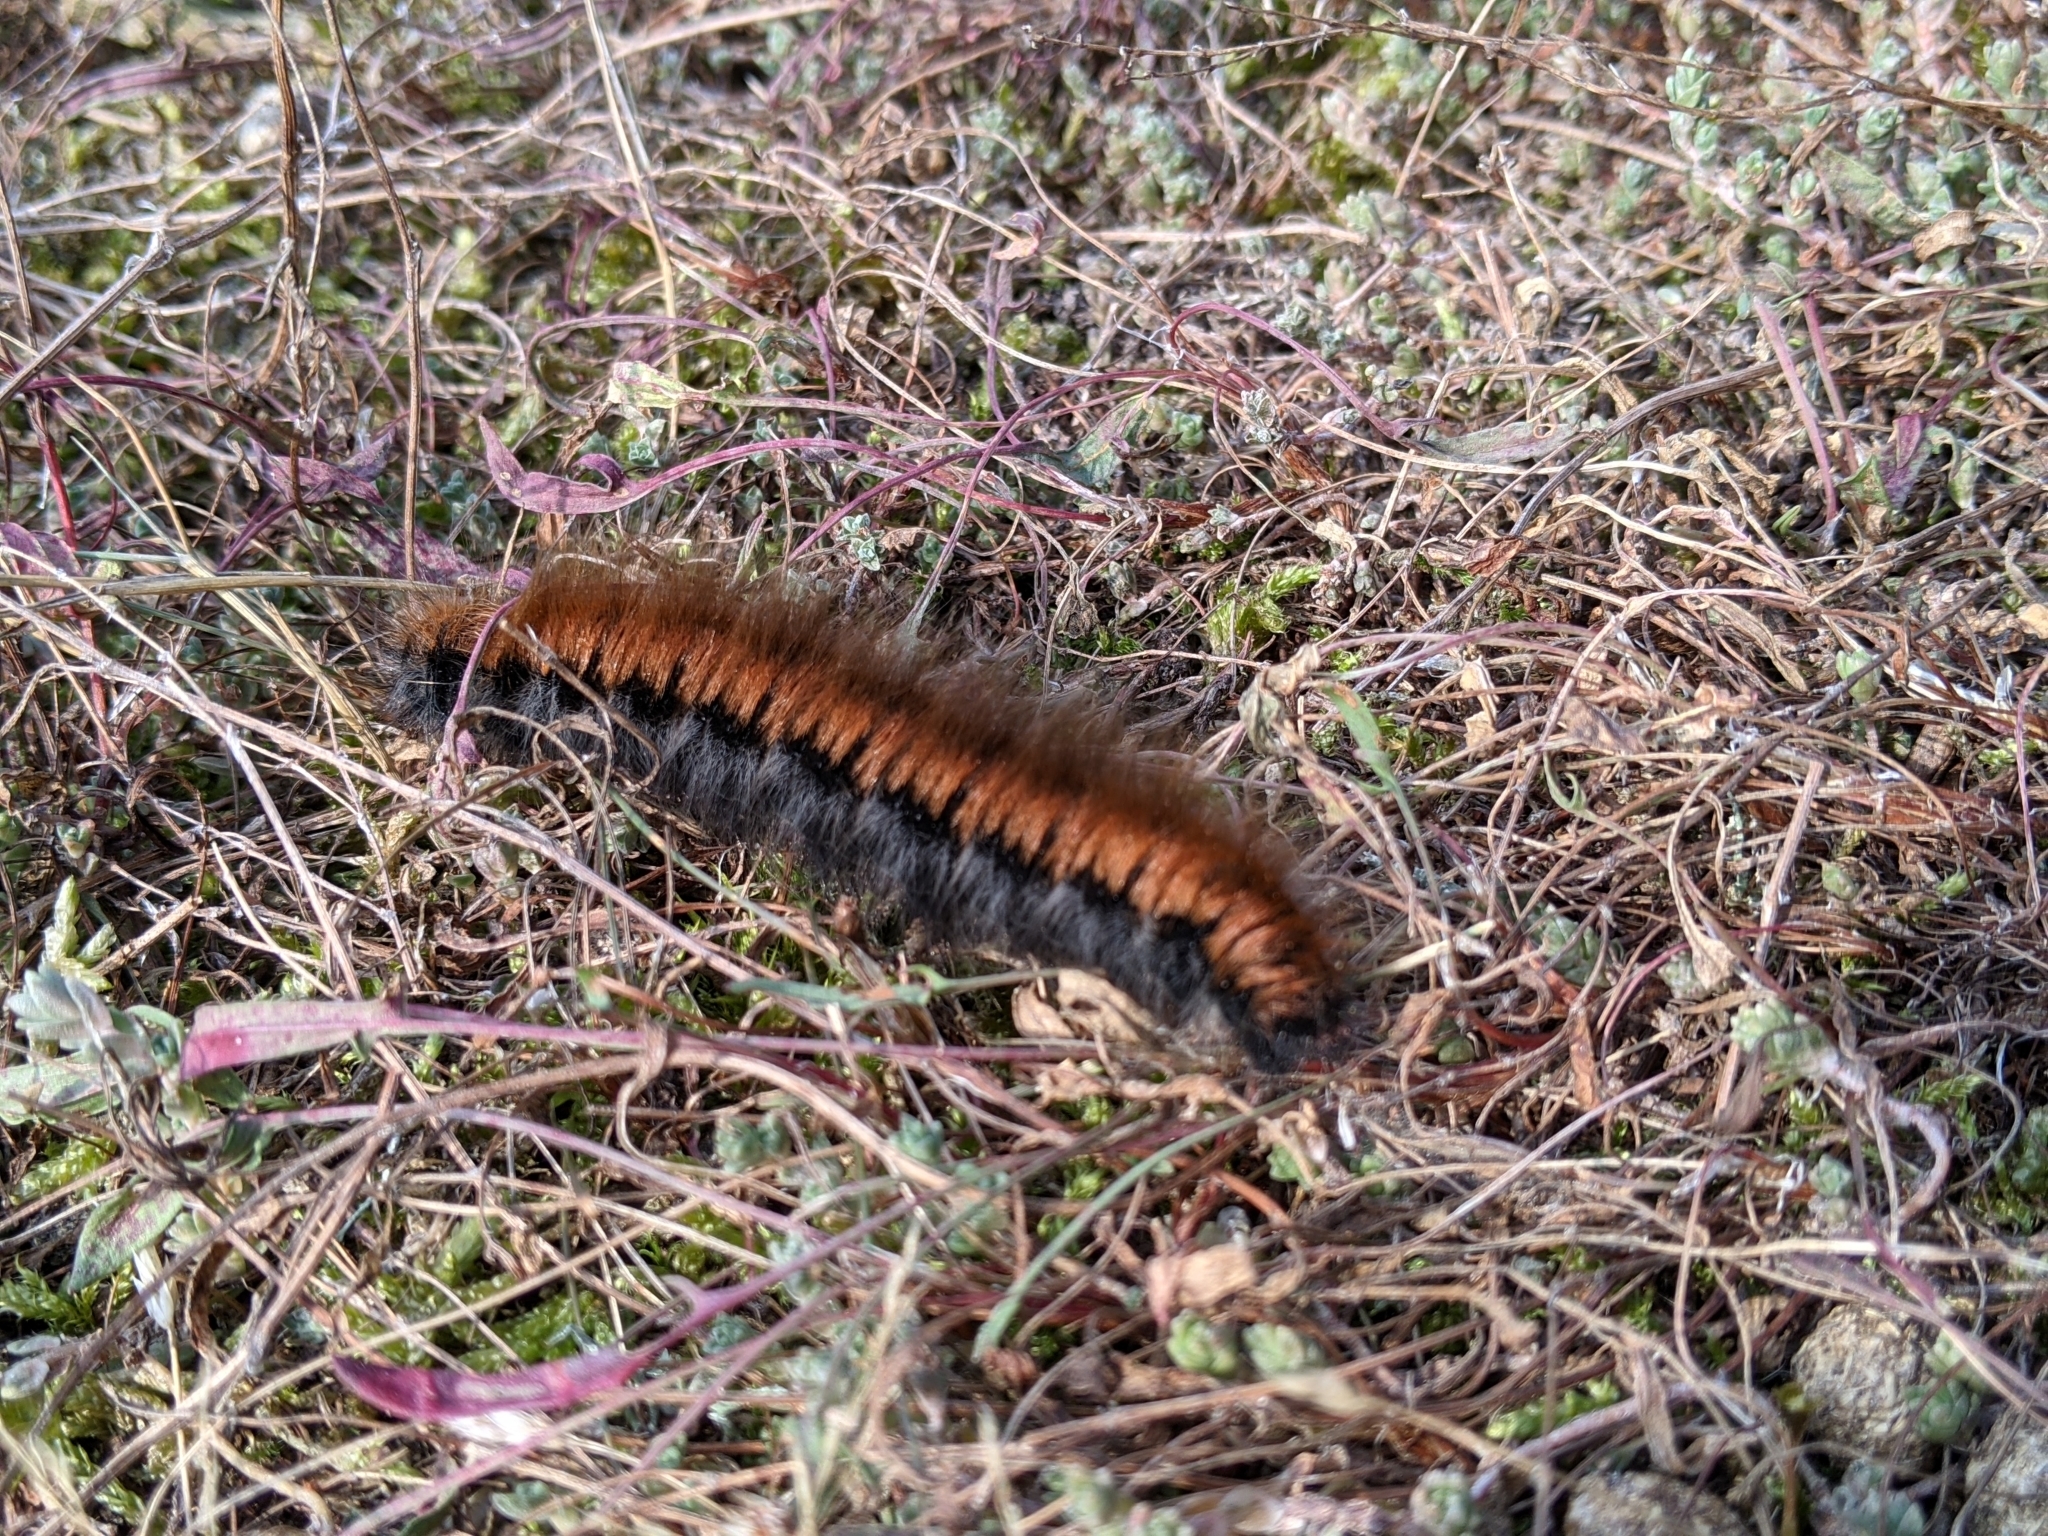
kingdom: Animalia
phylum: Arthropoda
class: Insecta
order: Lepidoptera
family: Lasiocampidae
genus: Macrothylacia
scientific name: Macrothylacia rubi
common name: Fox moth
